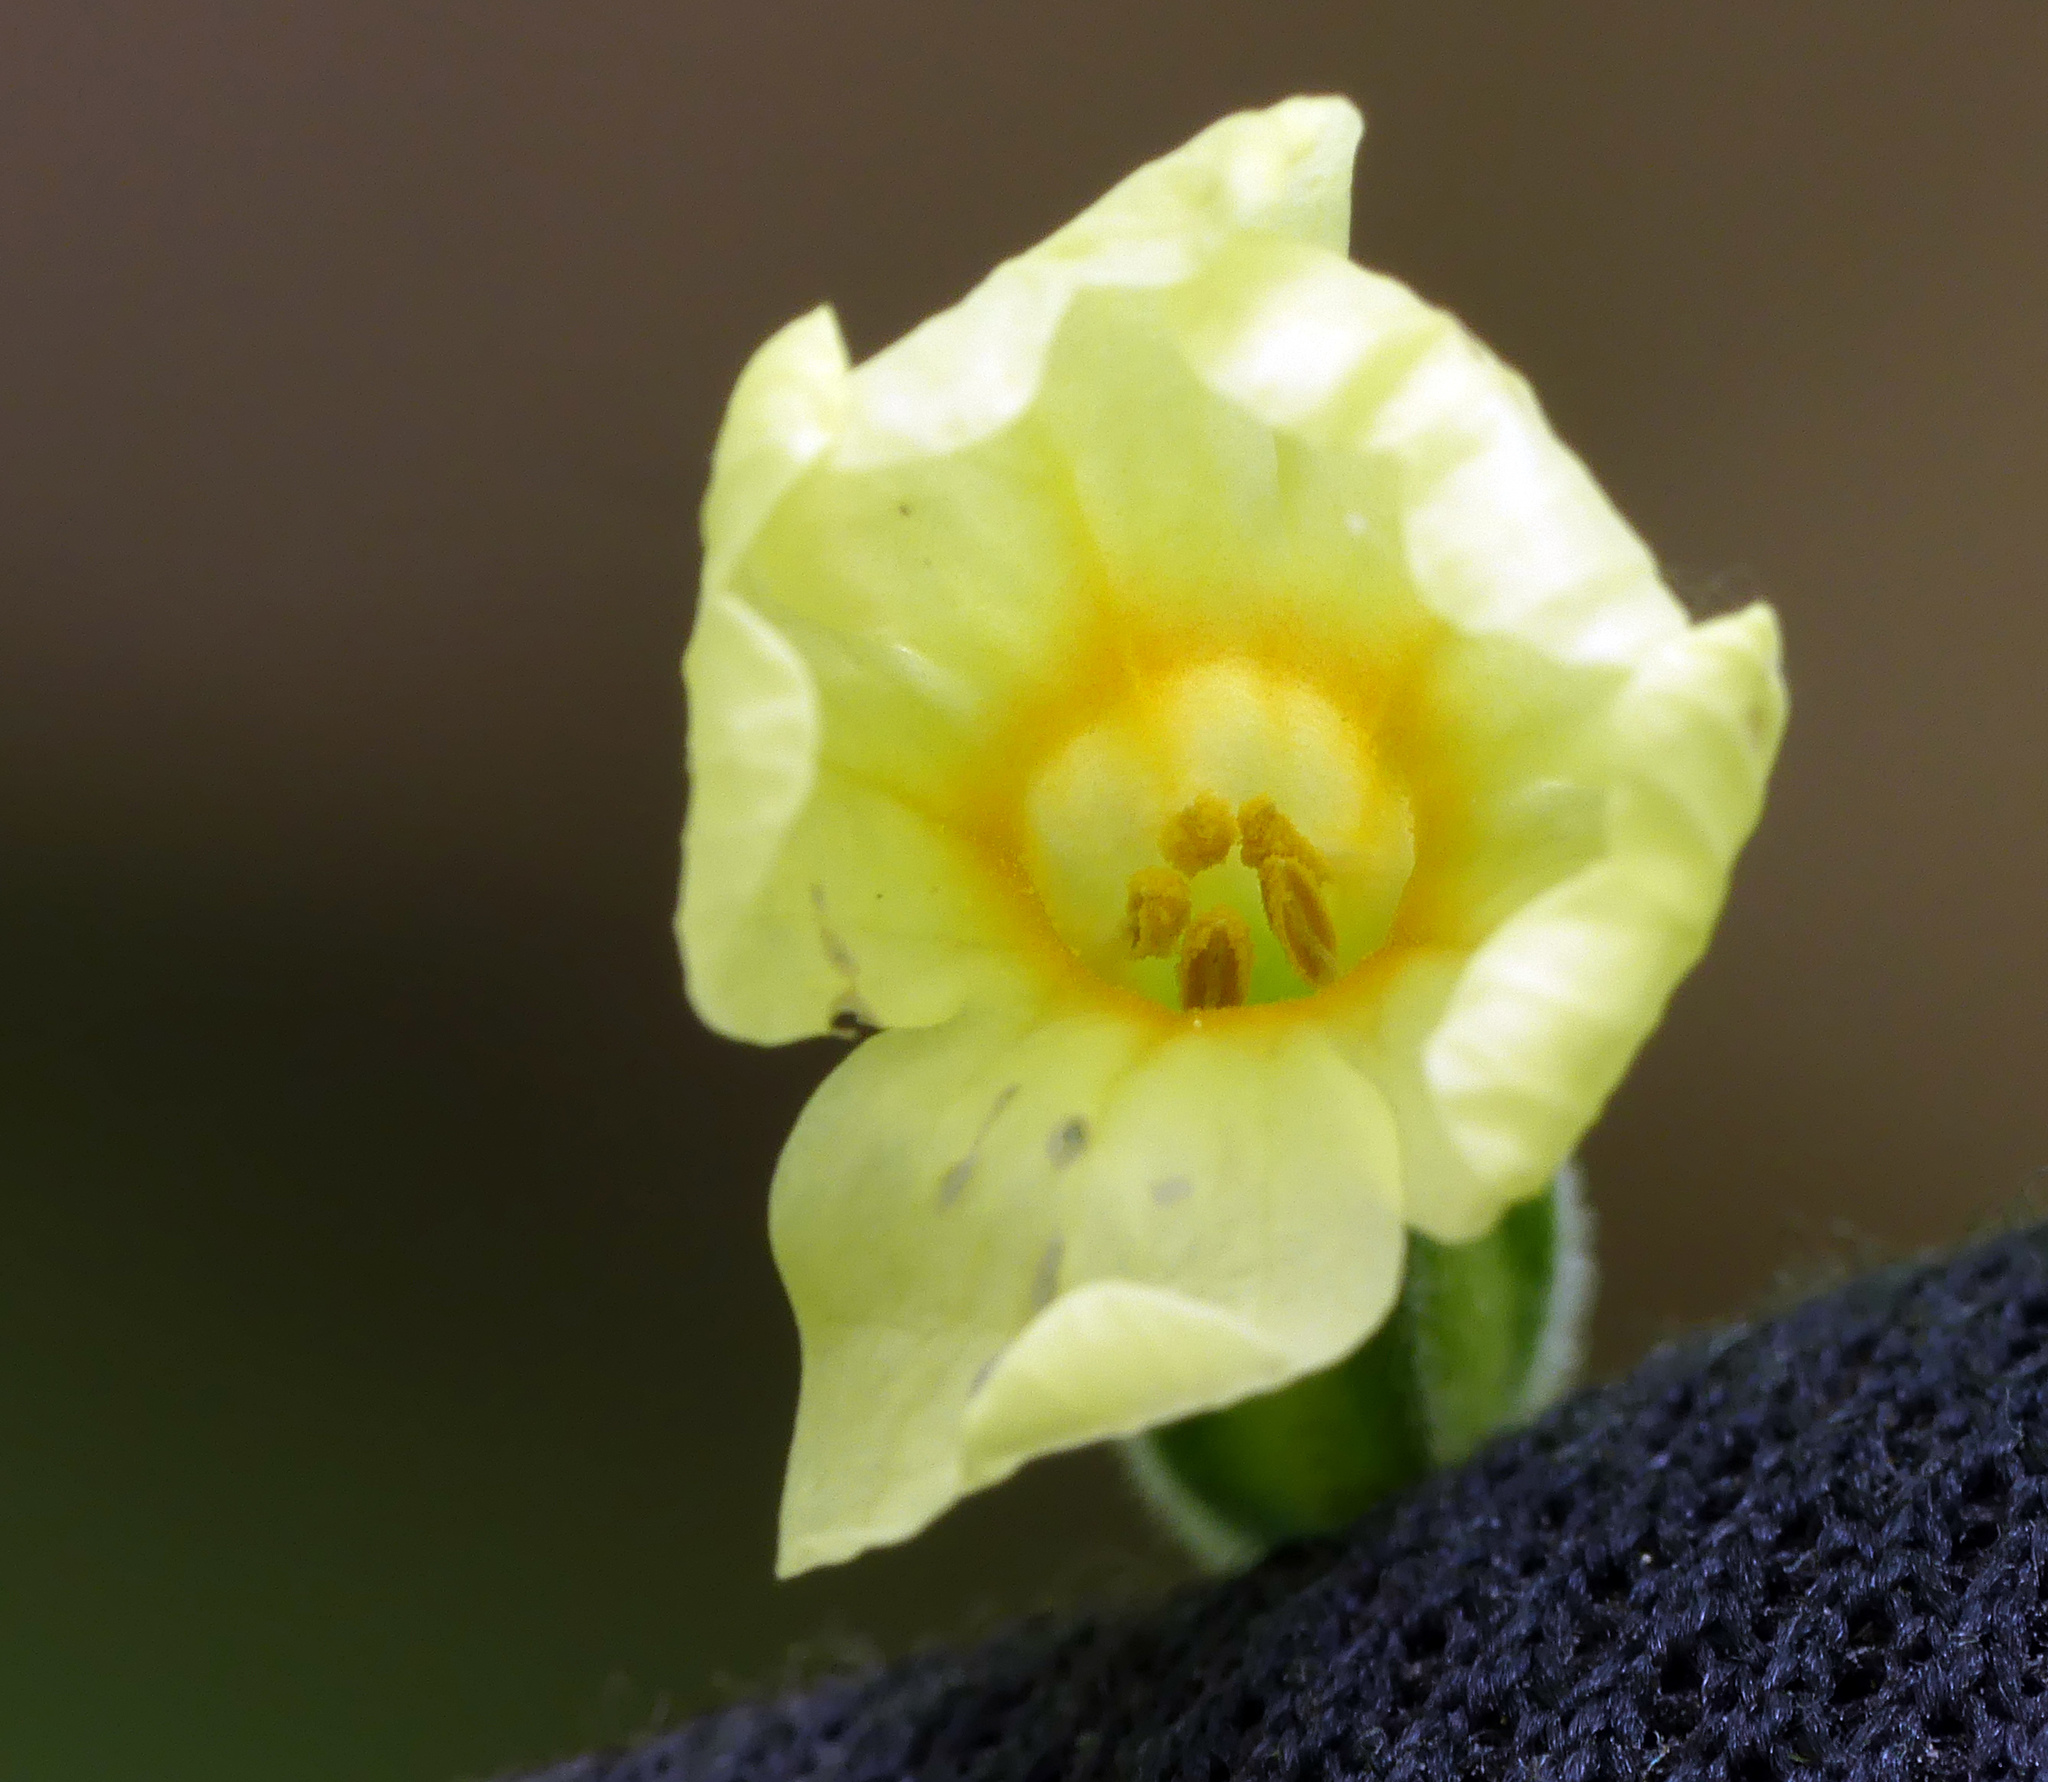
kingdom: Plantae
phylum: Tracheophyta
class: Magnoliopsida
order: Ericales
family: Primulaceae
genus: Primula
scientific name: Primula elatior
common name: Oxlip
